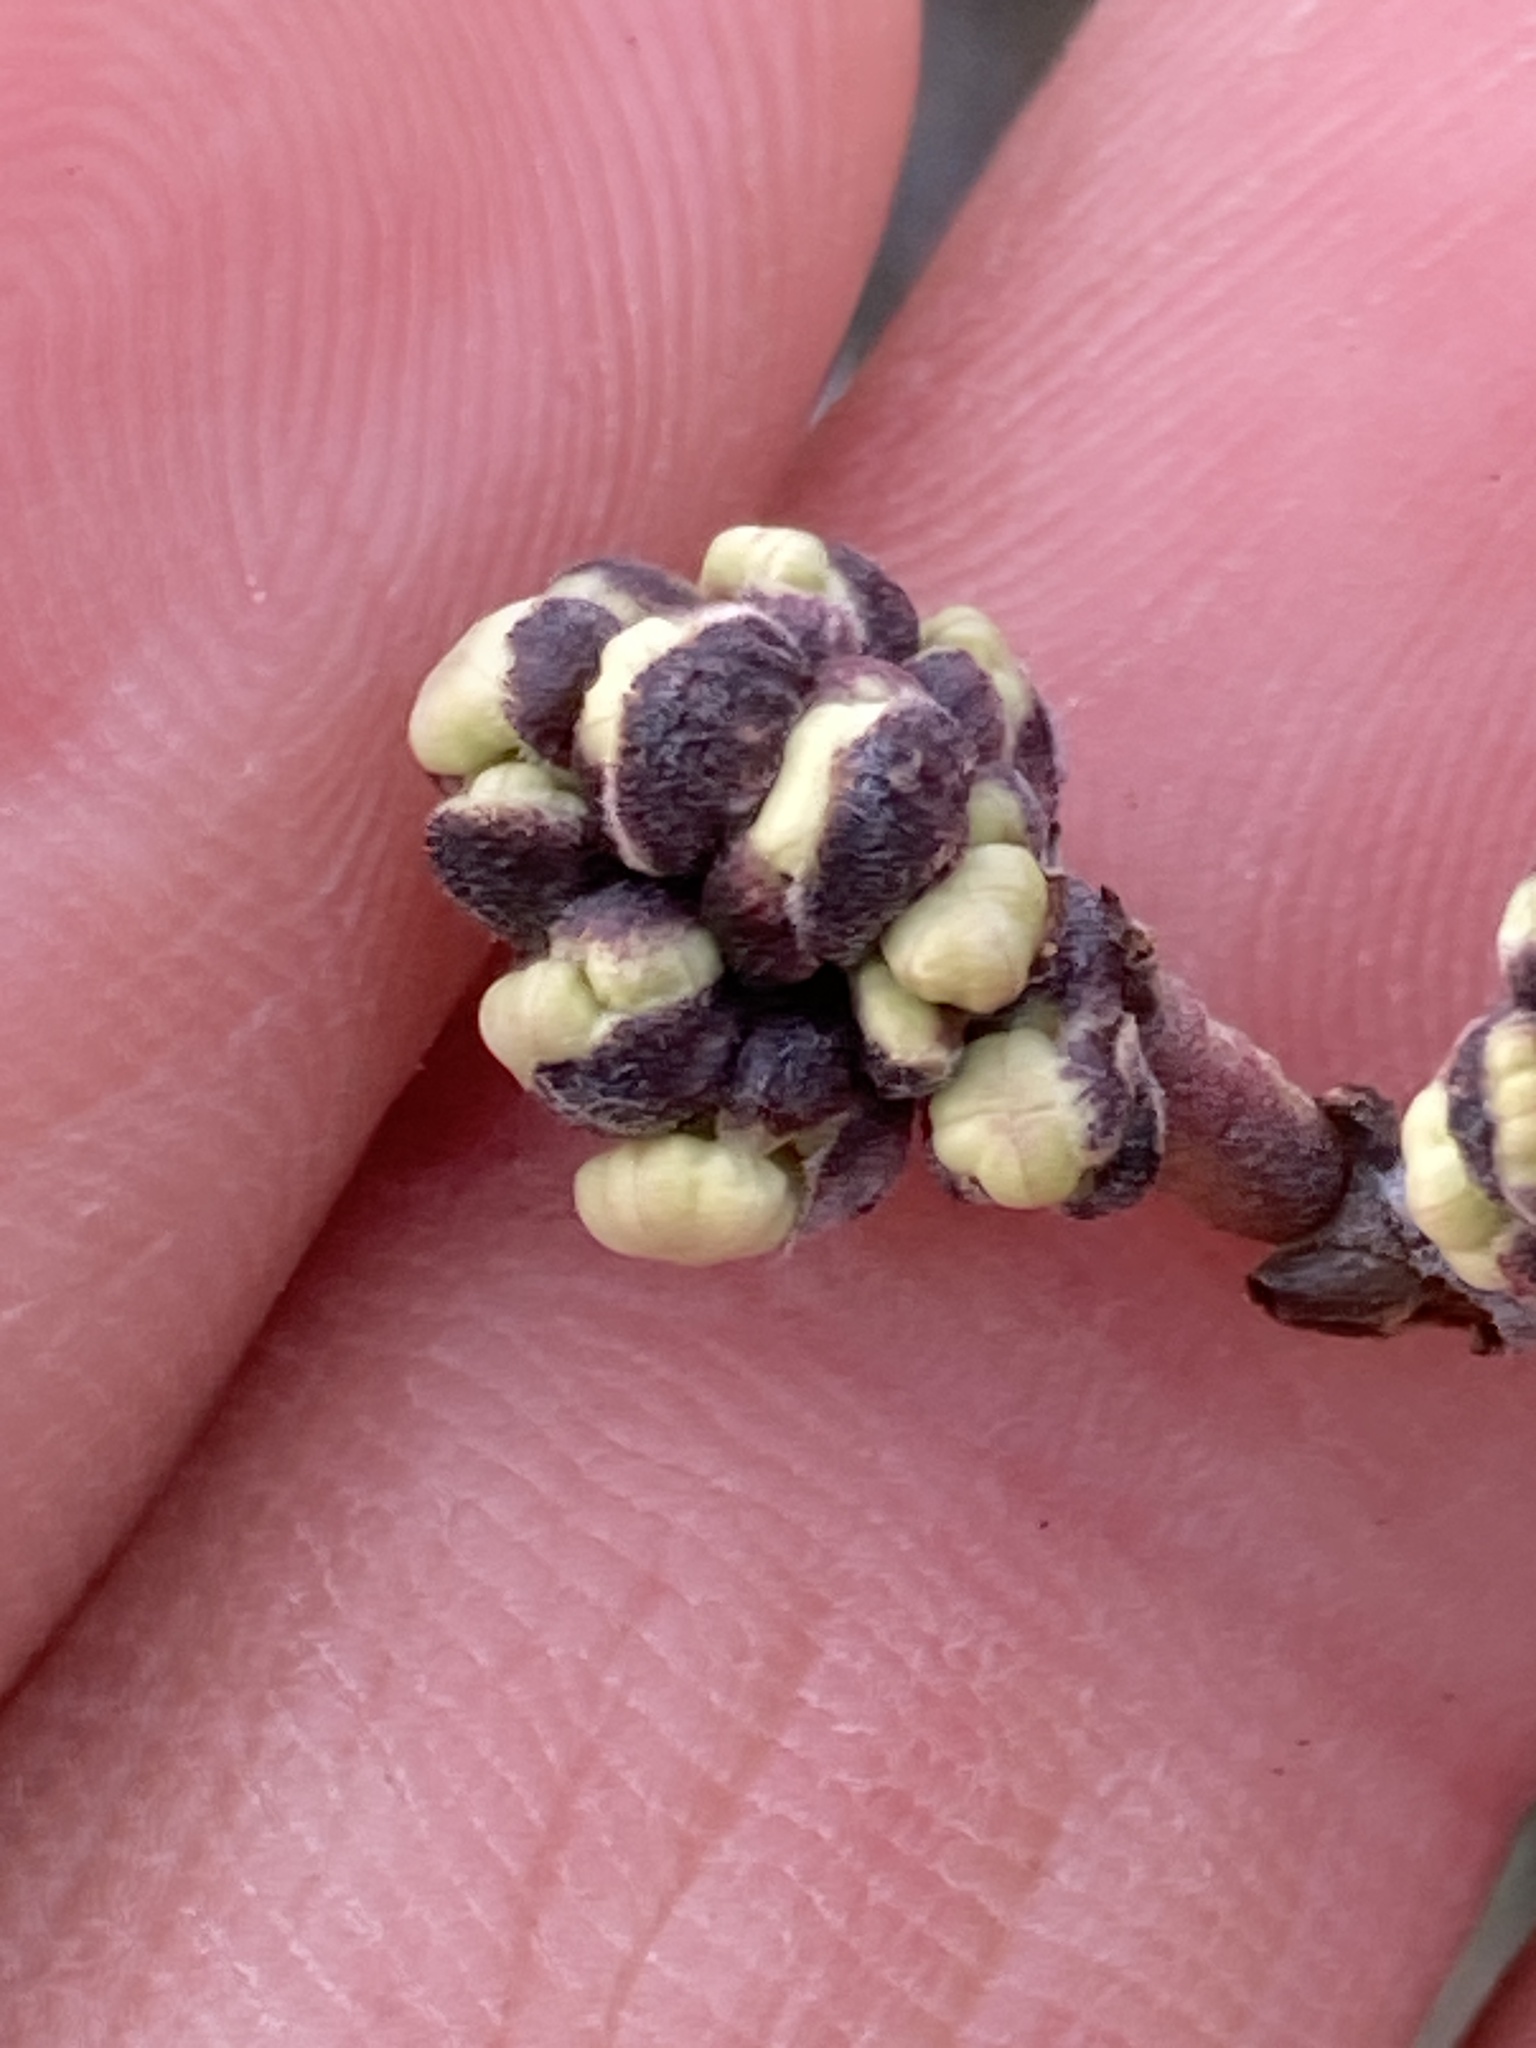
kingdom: Plantae
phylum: Tracheophyta
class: Magnoliopsida
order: Rosales
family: Rhamnaceae
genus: Ceanothus
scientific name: Ceanothus cuneatus
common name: Cuneate ceanothus
